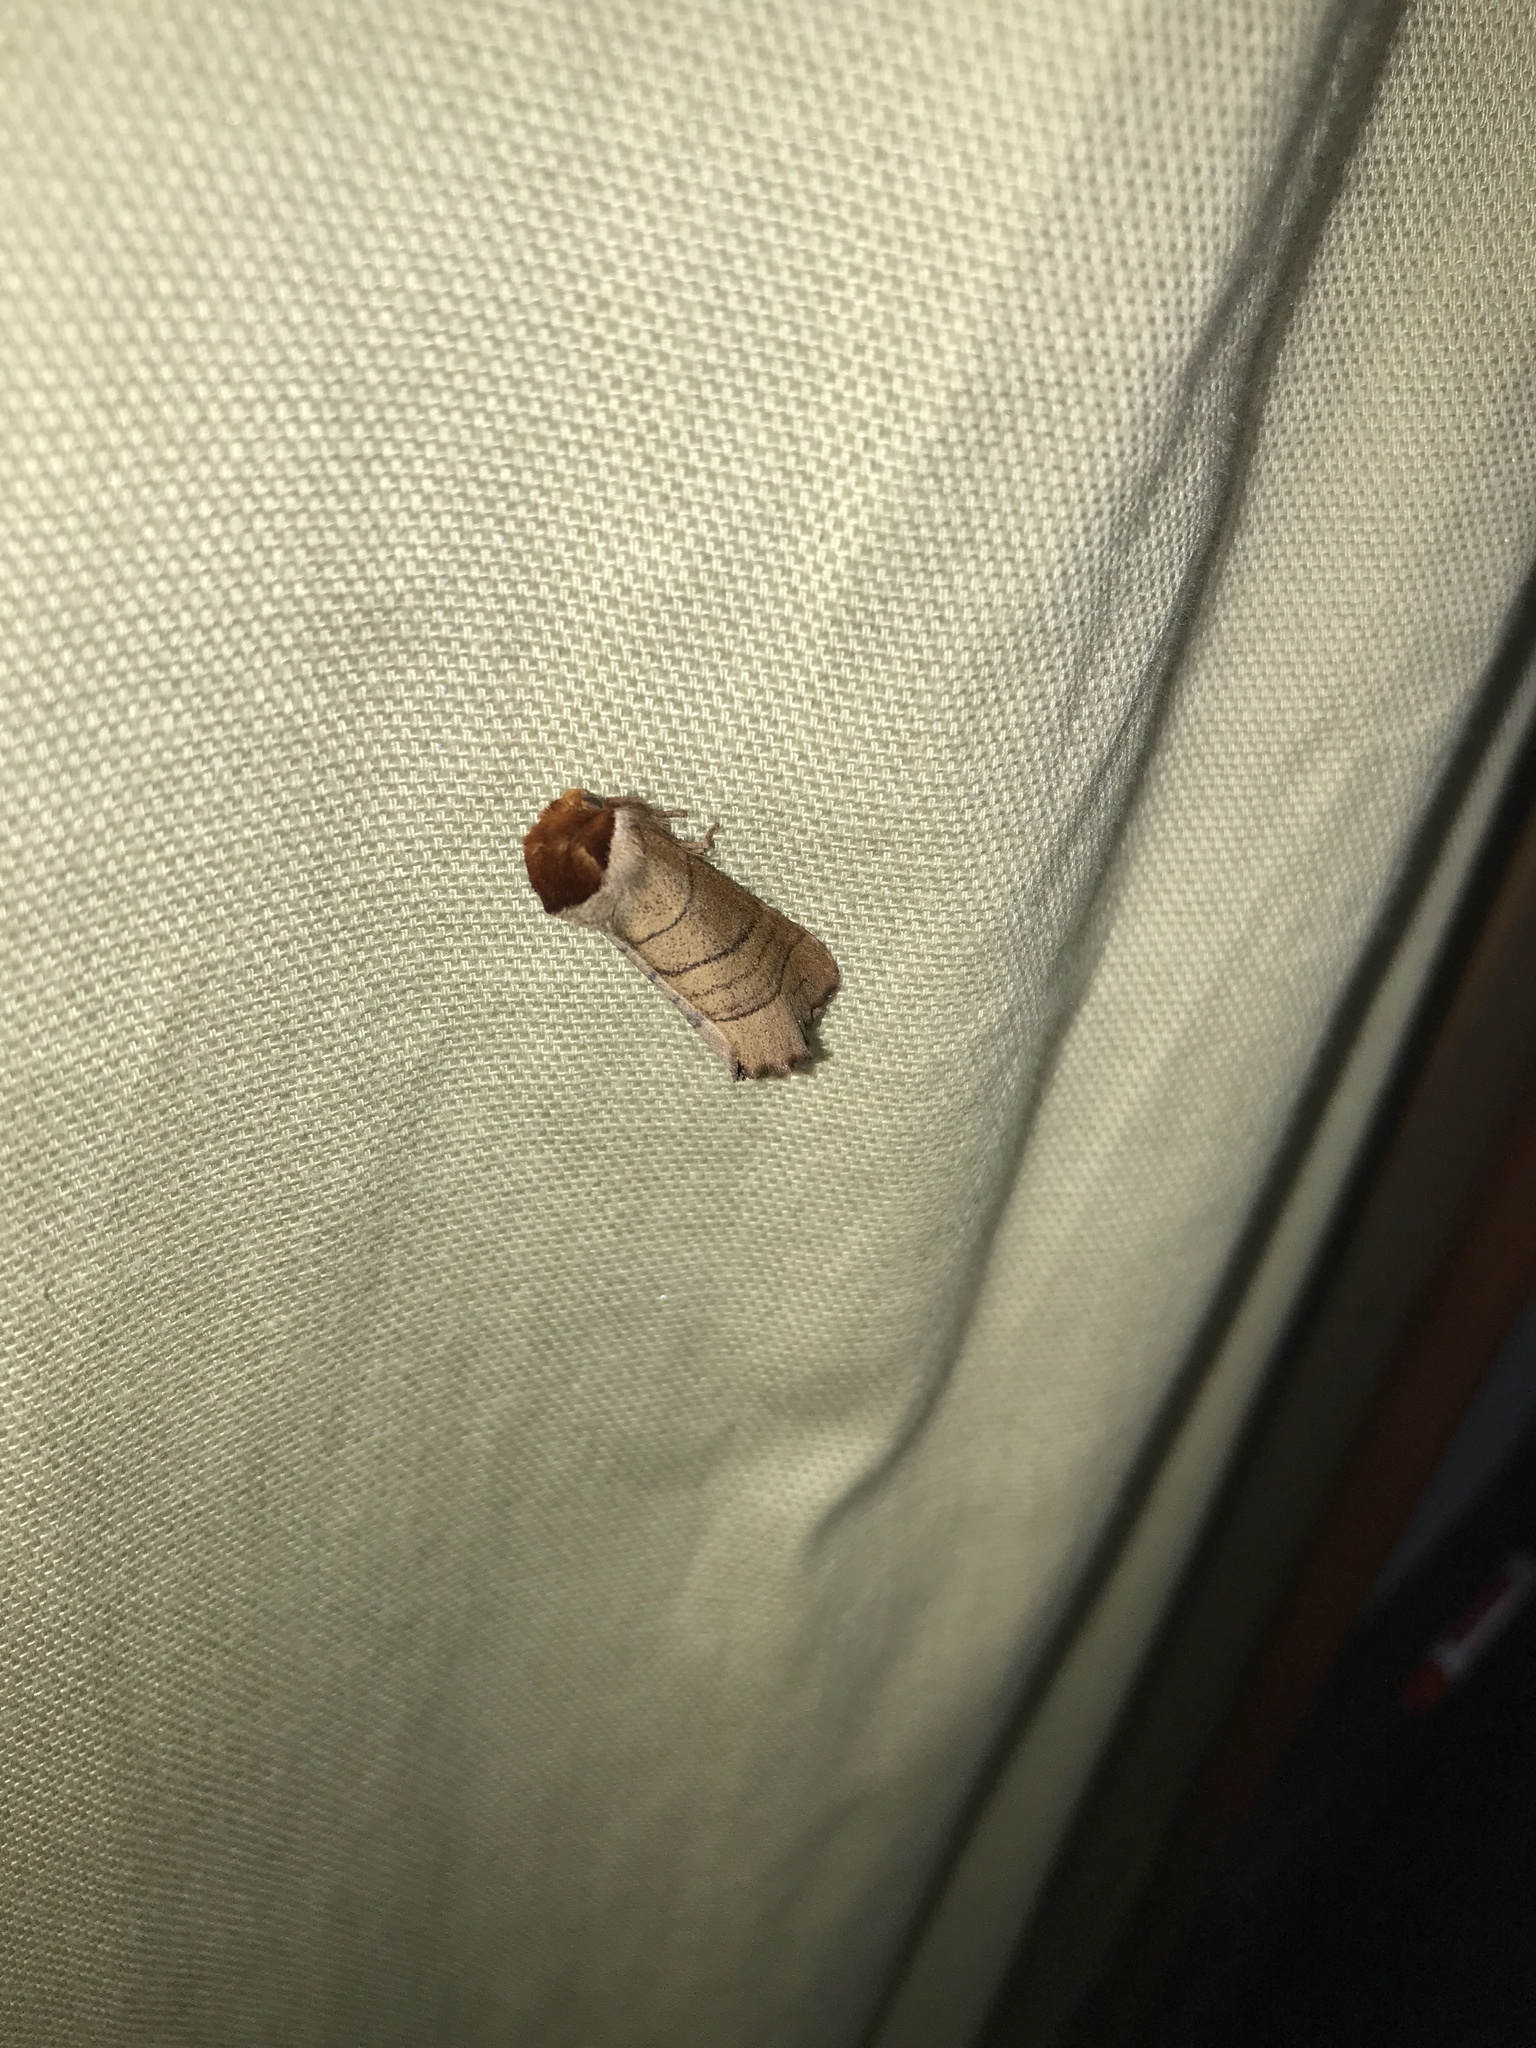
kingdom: Animalia
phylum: Arthropoda
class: Insecta
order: Lepidoptera
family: Notodontidae
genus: Datana
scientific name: Datana ministra
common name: Yellow-necked caterpillar moth
